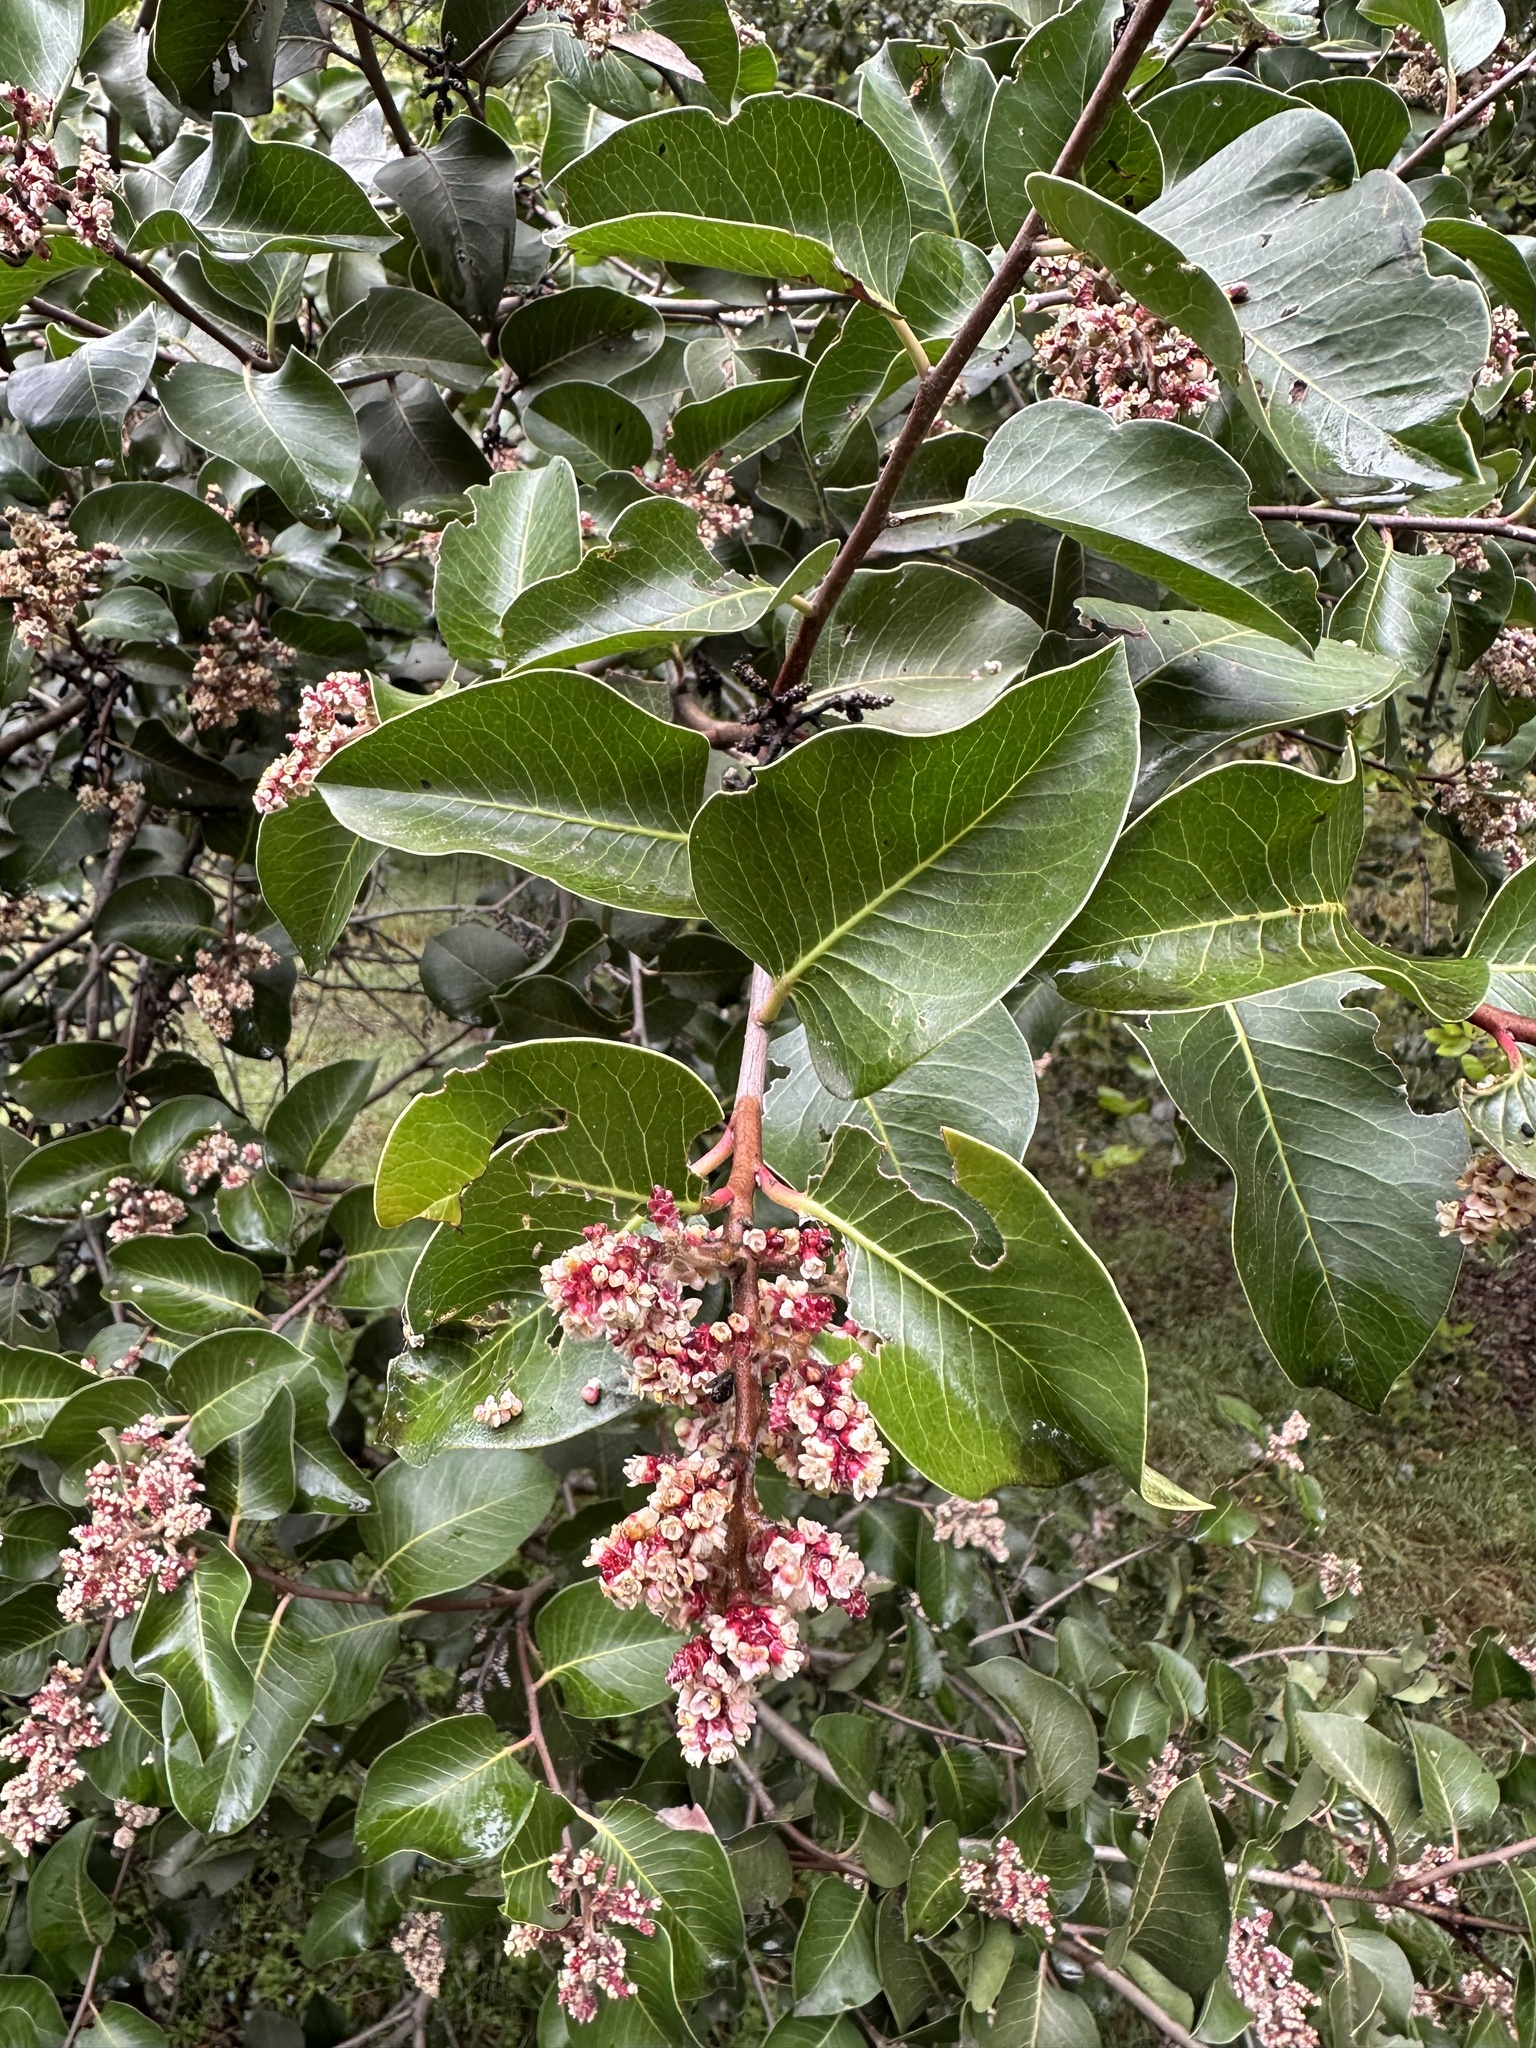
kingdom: Plantae
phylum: Tracheophyta
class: Magnoliopsida
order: Sapindales
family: Anacardiaceae
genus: Rhus
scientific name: Rhus ovata
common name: Sugar sumac
